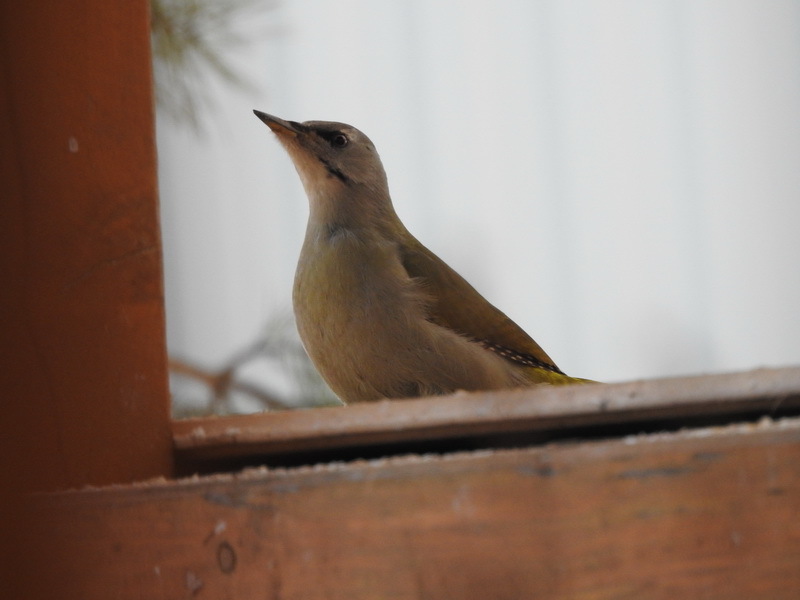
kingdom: Animalia
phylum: Chordata
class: Aves
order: Piciformes
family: Picidae
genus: Picus
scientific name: Picus canus
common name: Grey-headed woodpecker
